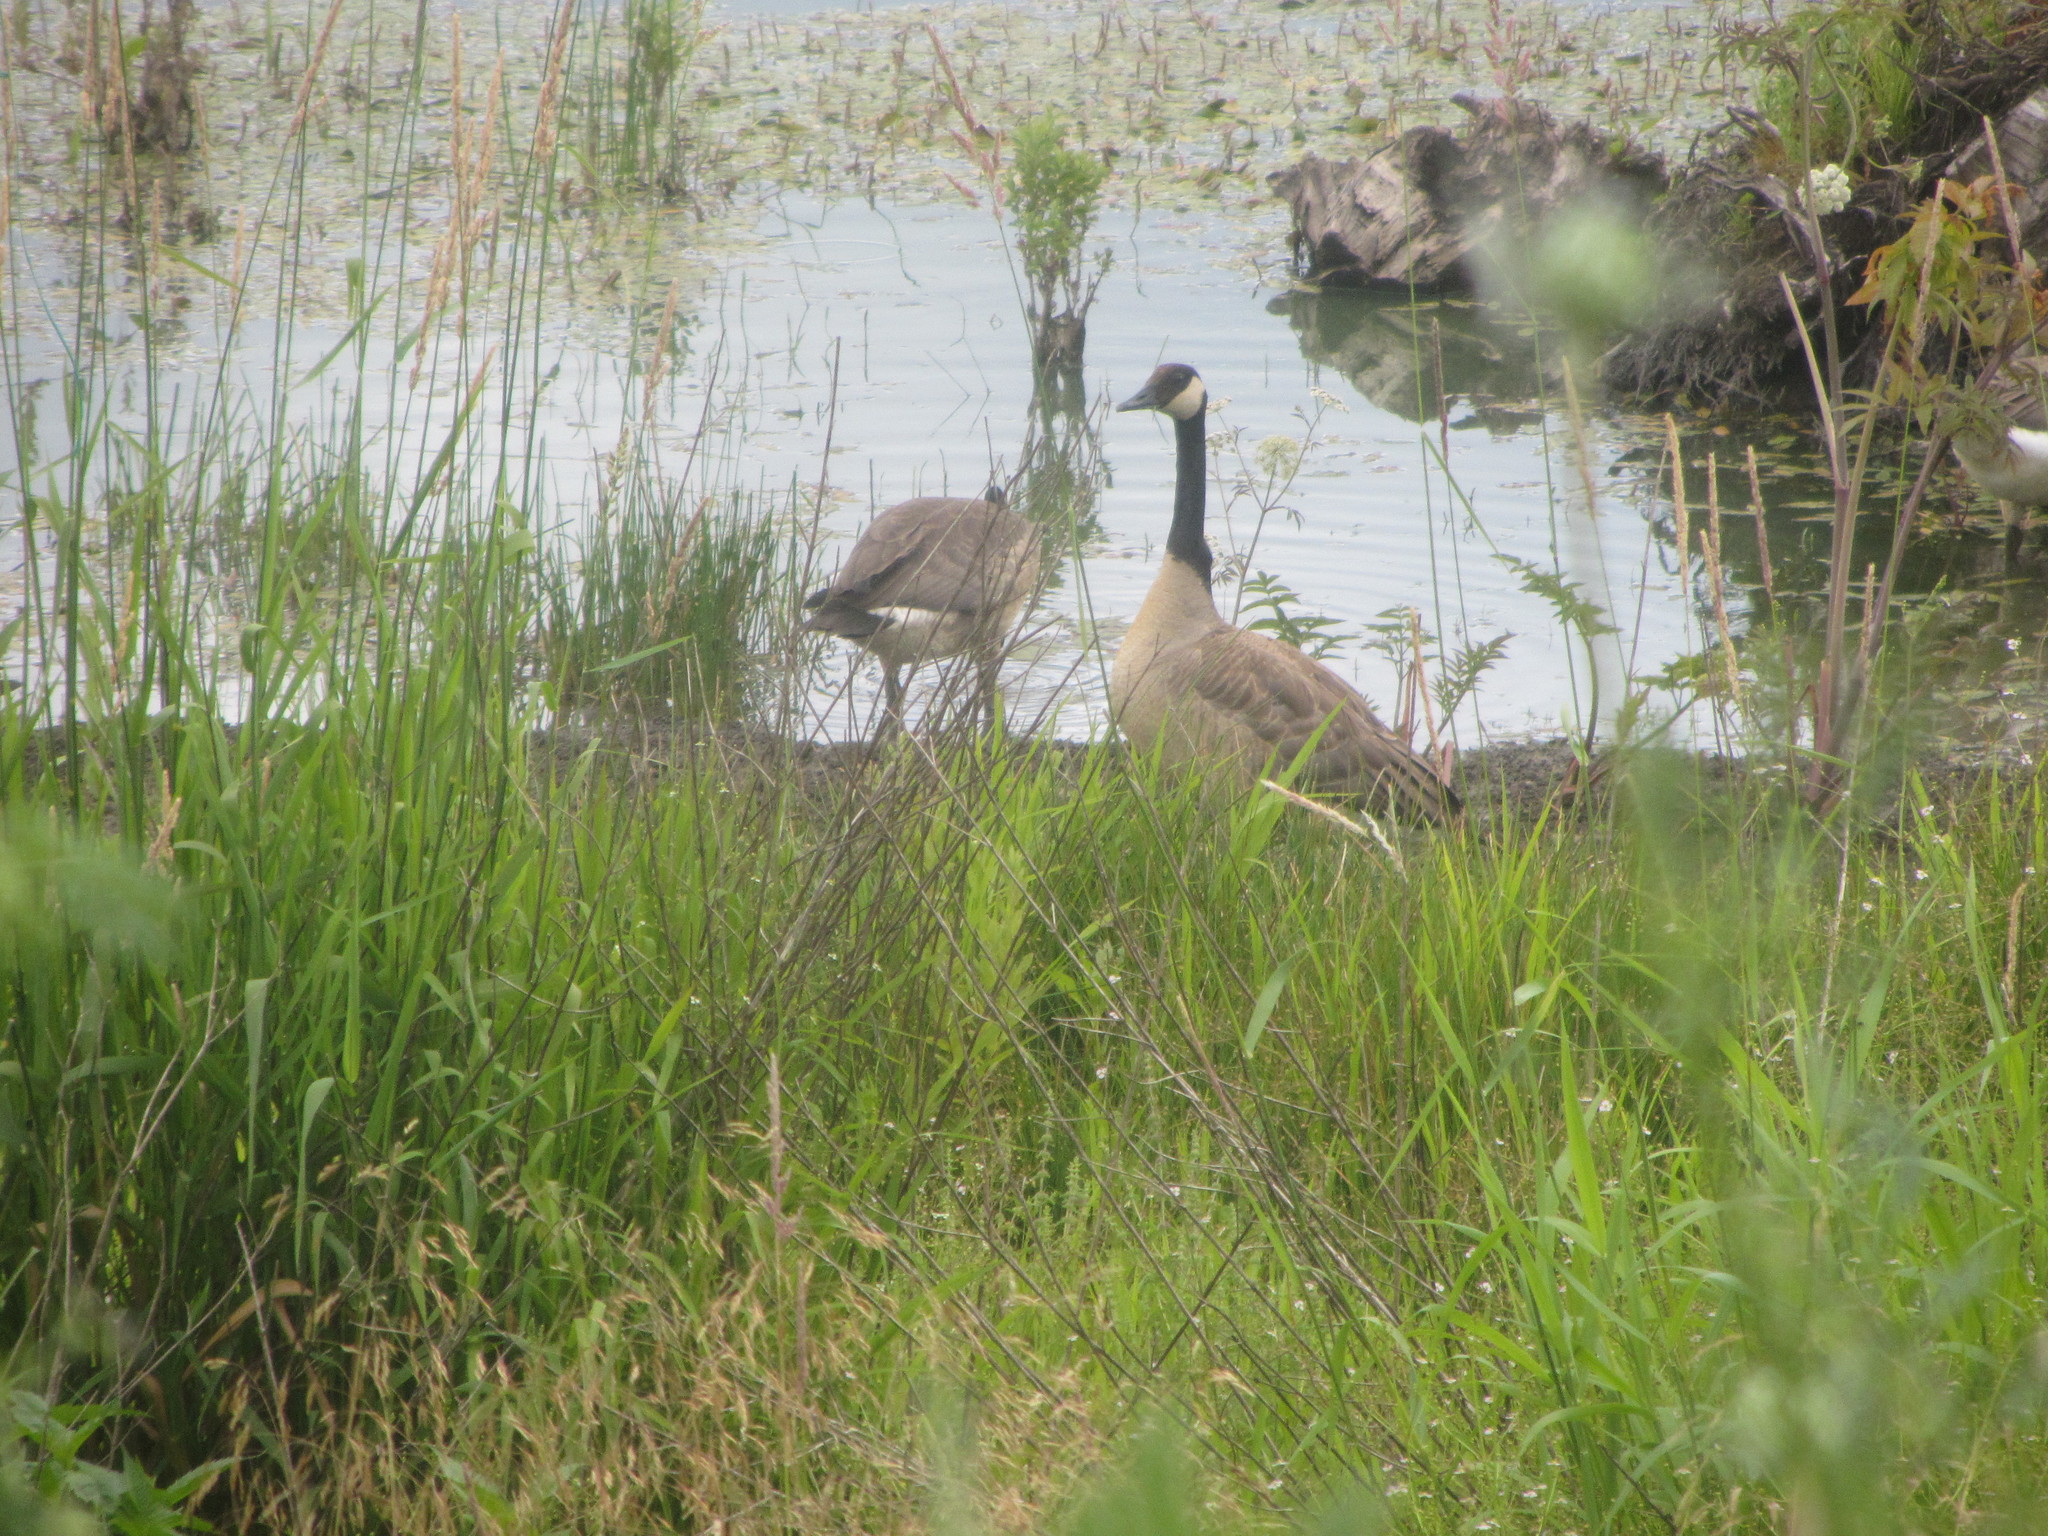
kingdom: Animalia
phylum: Chordata
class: Aves
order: Anseriformes
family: Anatidae
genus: Branta
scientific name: Branta canadensis
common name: Canada goose
